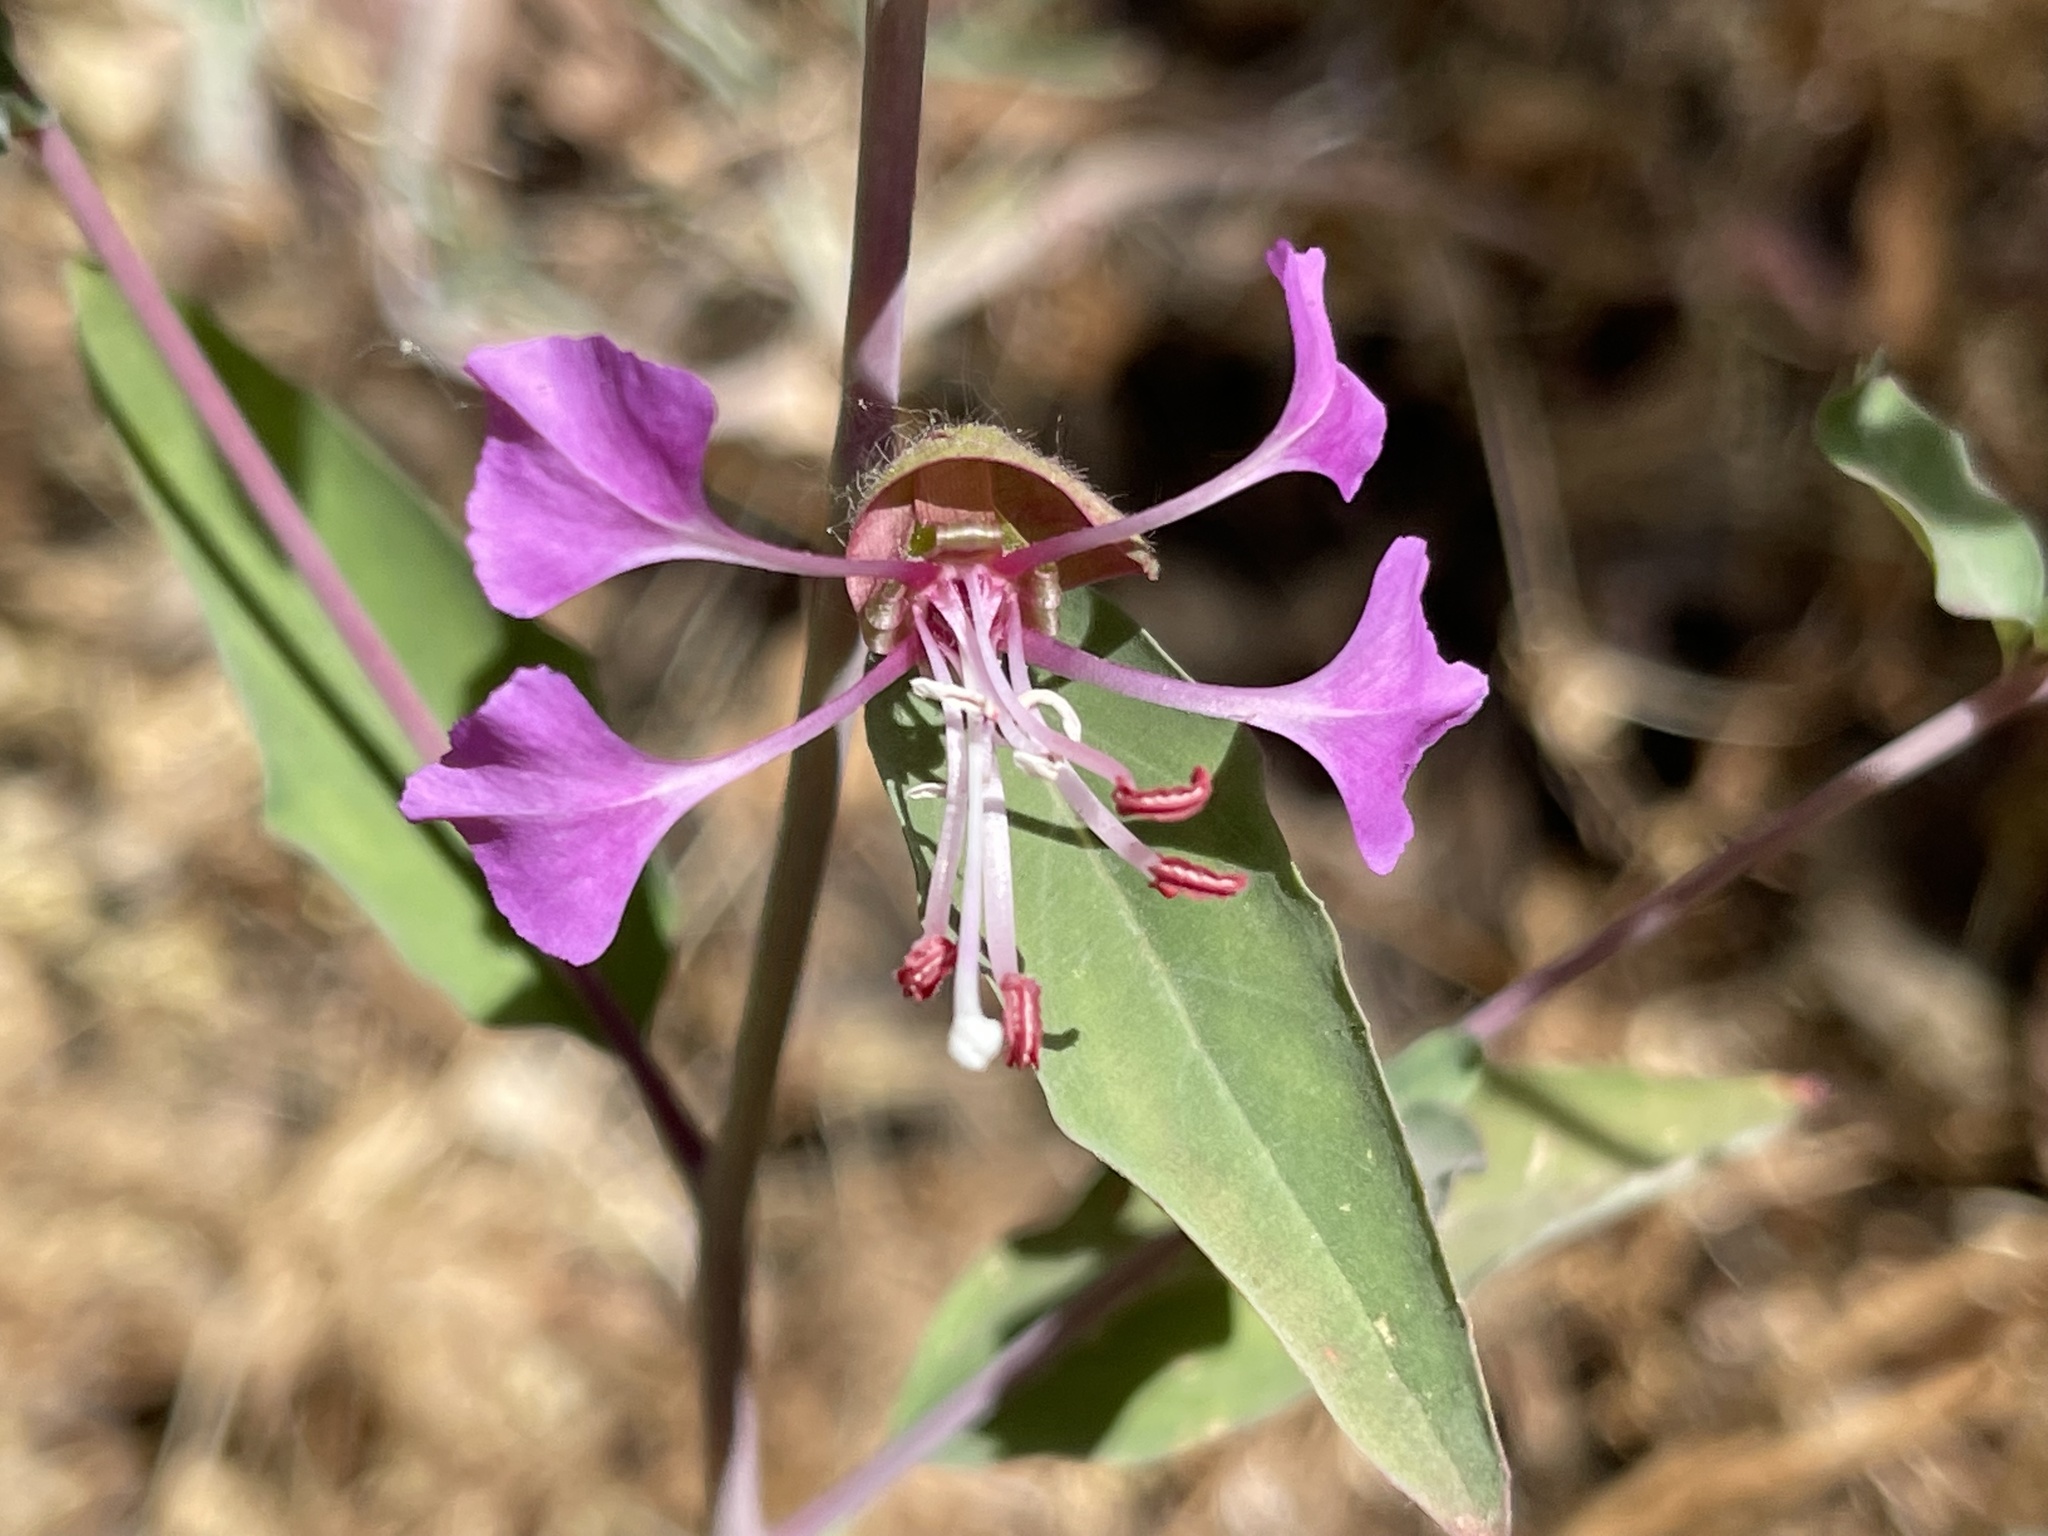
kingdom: Plantae
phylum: Tracheophyta
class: Magnoliopsida
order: Myrtales
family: Onagraceae
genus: Clarkia
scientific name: Clarkia unguiculata
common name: Clarkia
